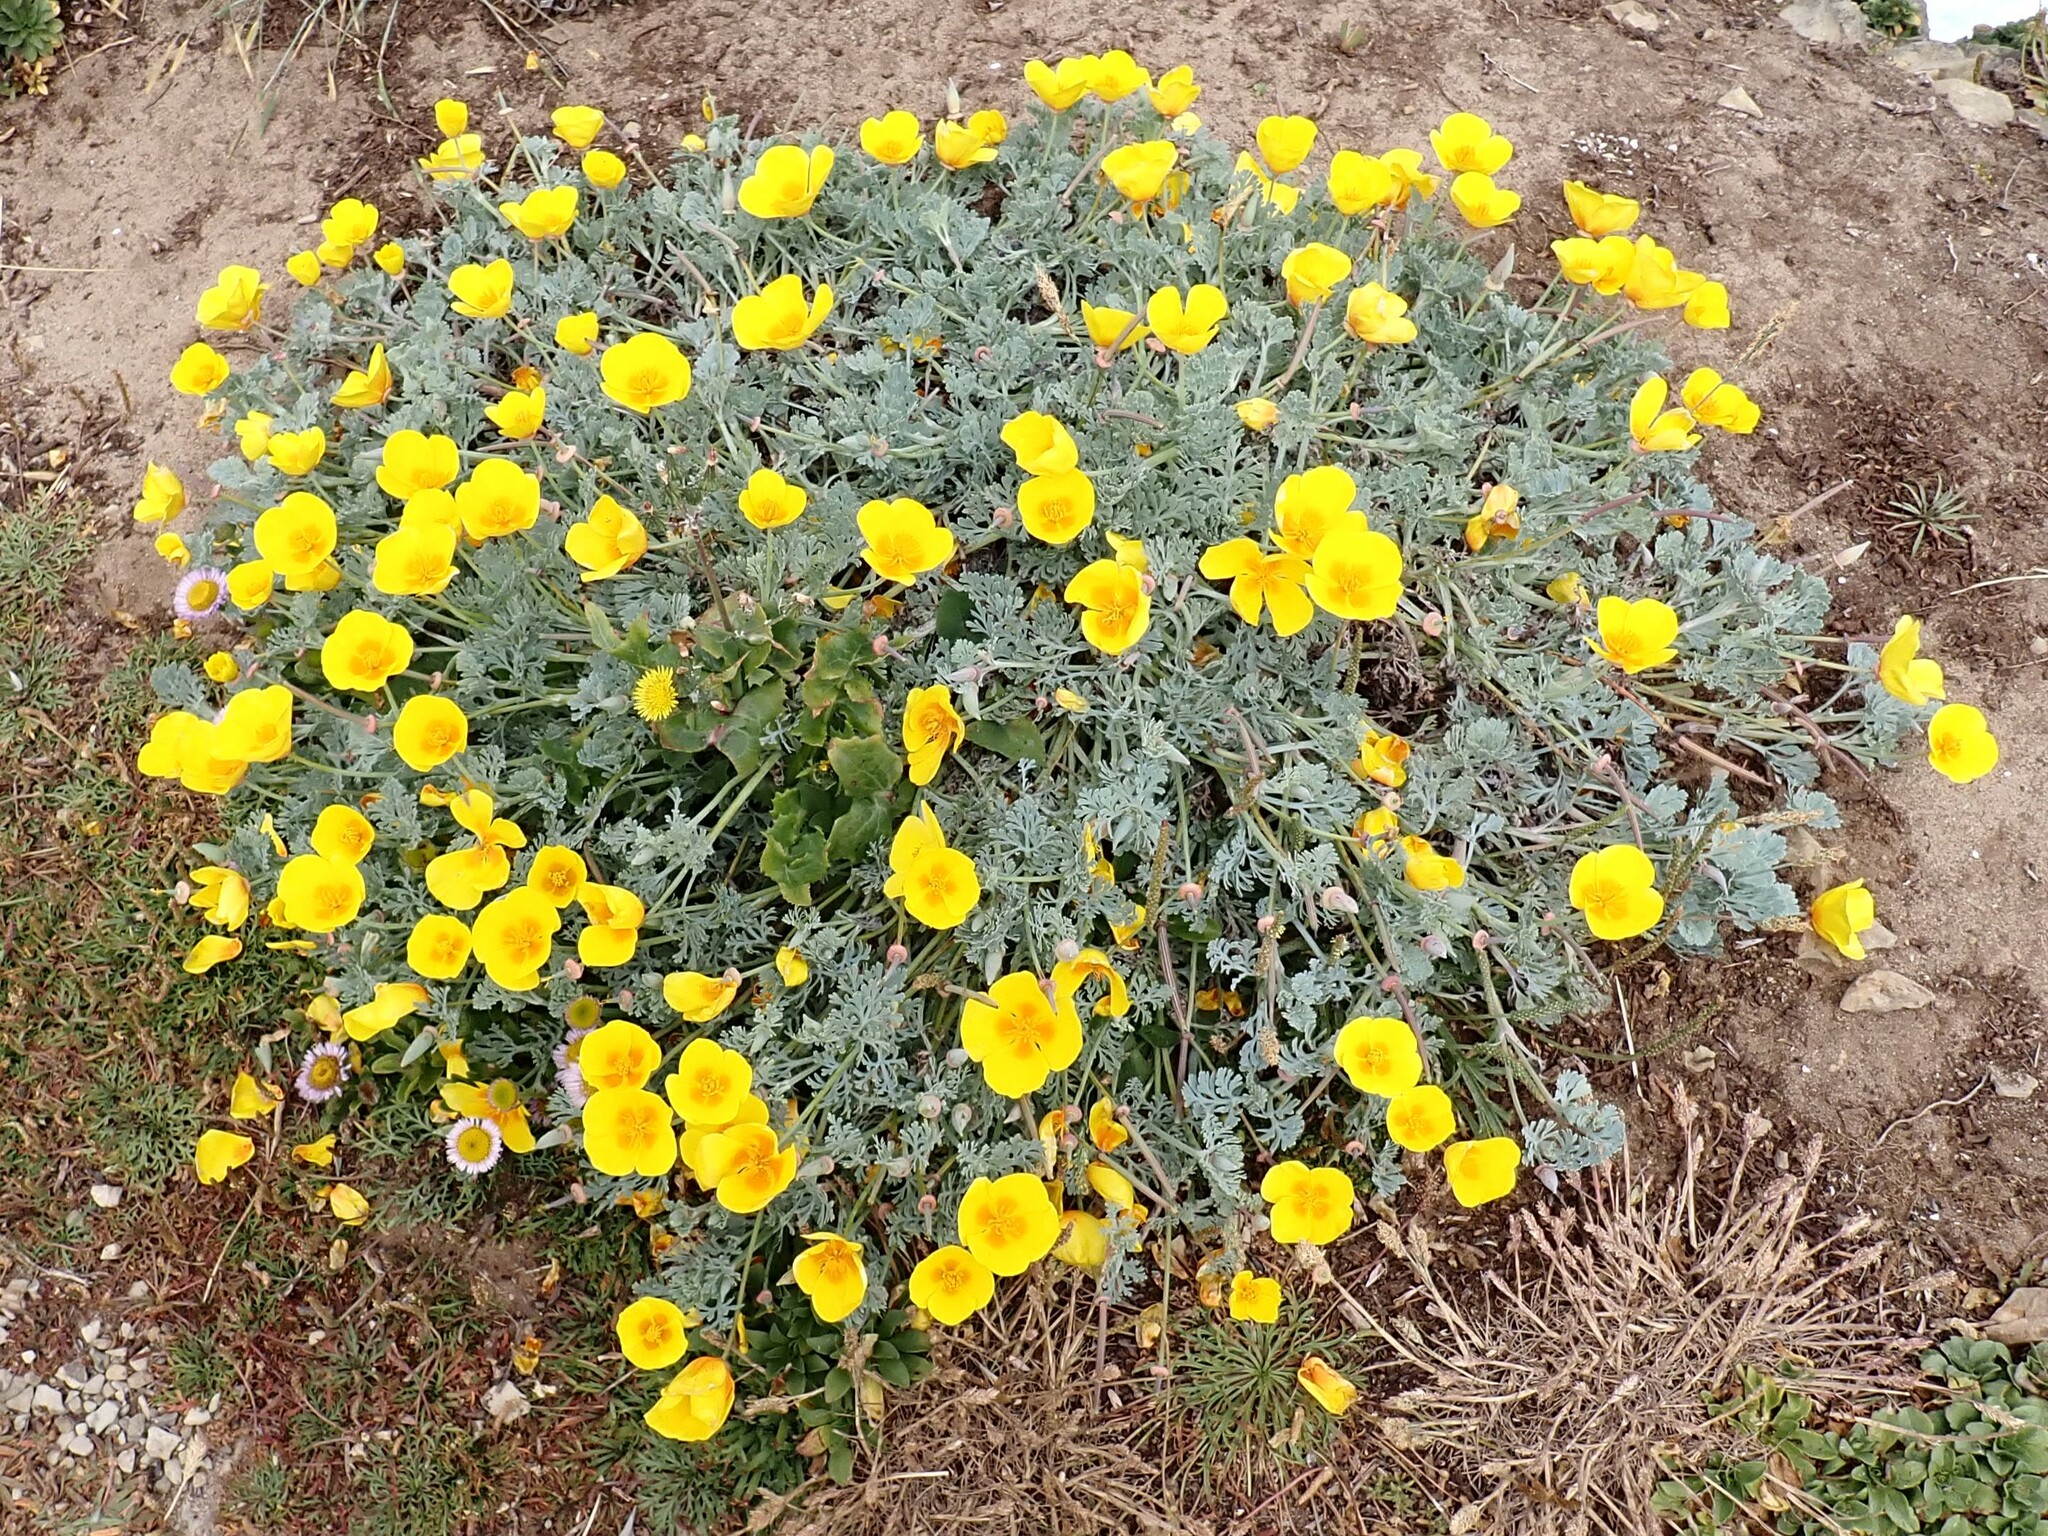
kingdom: Plantae
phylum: Tracheophyta
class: Magnoliopsida
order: Ranunculales
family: Papaveraceae
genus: Eschscholzia
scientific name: Eschscholzia californica
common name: California poppy
